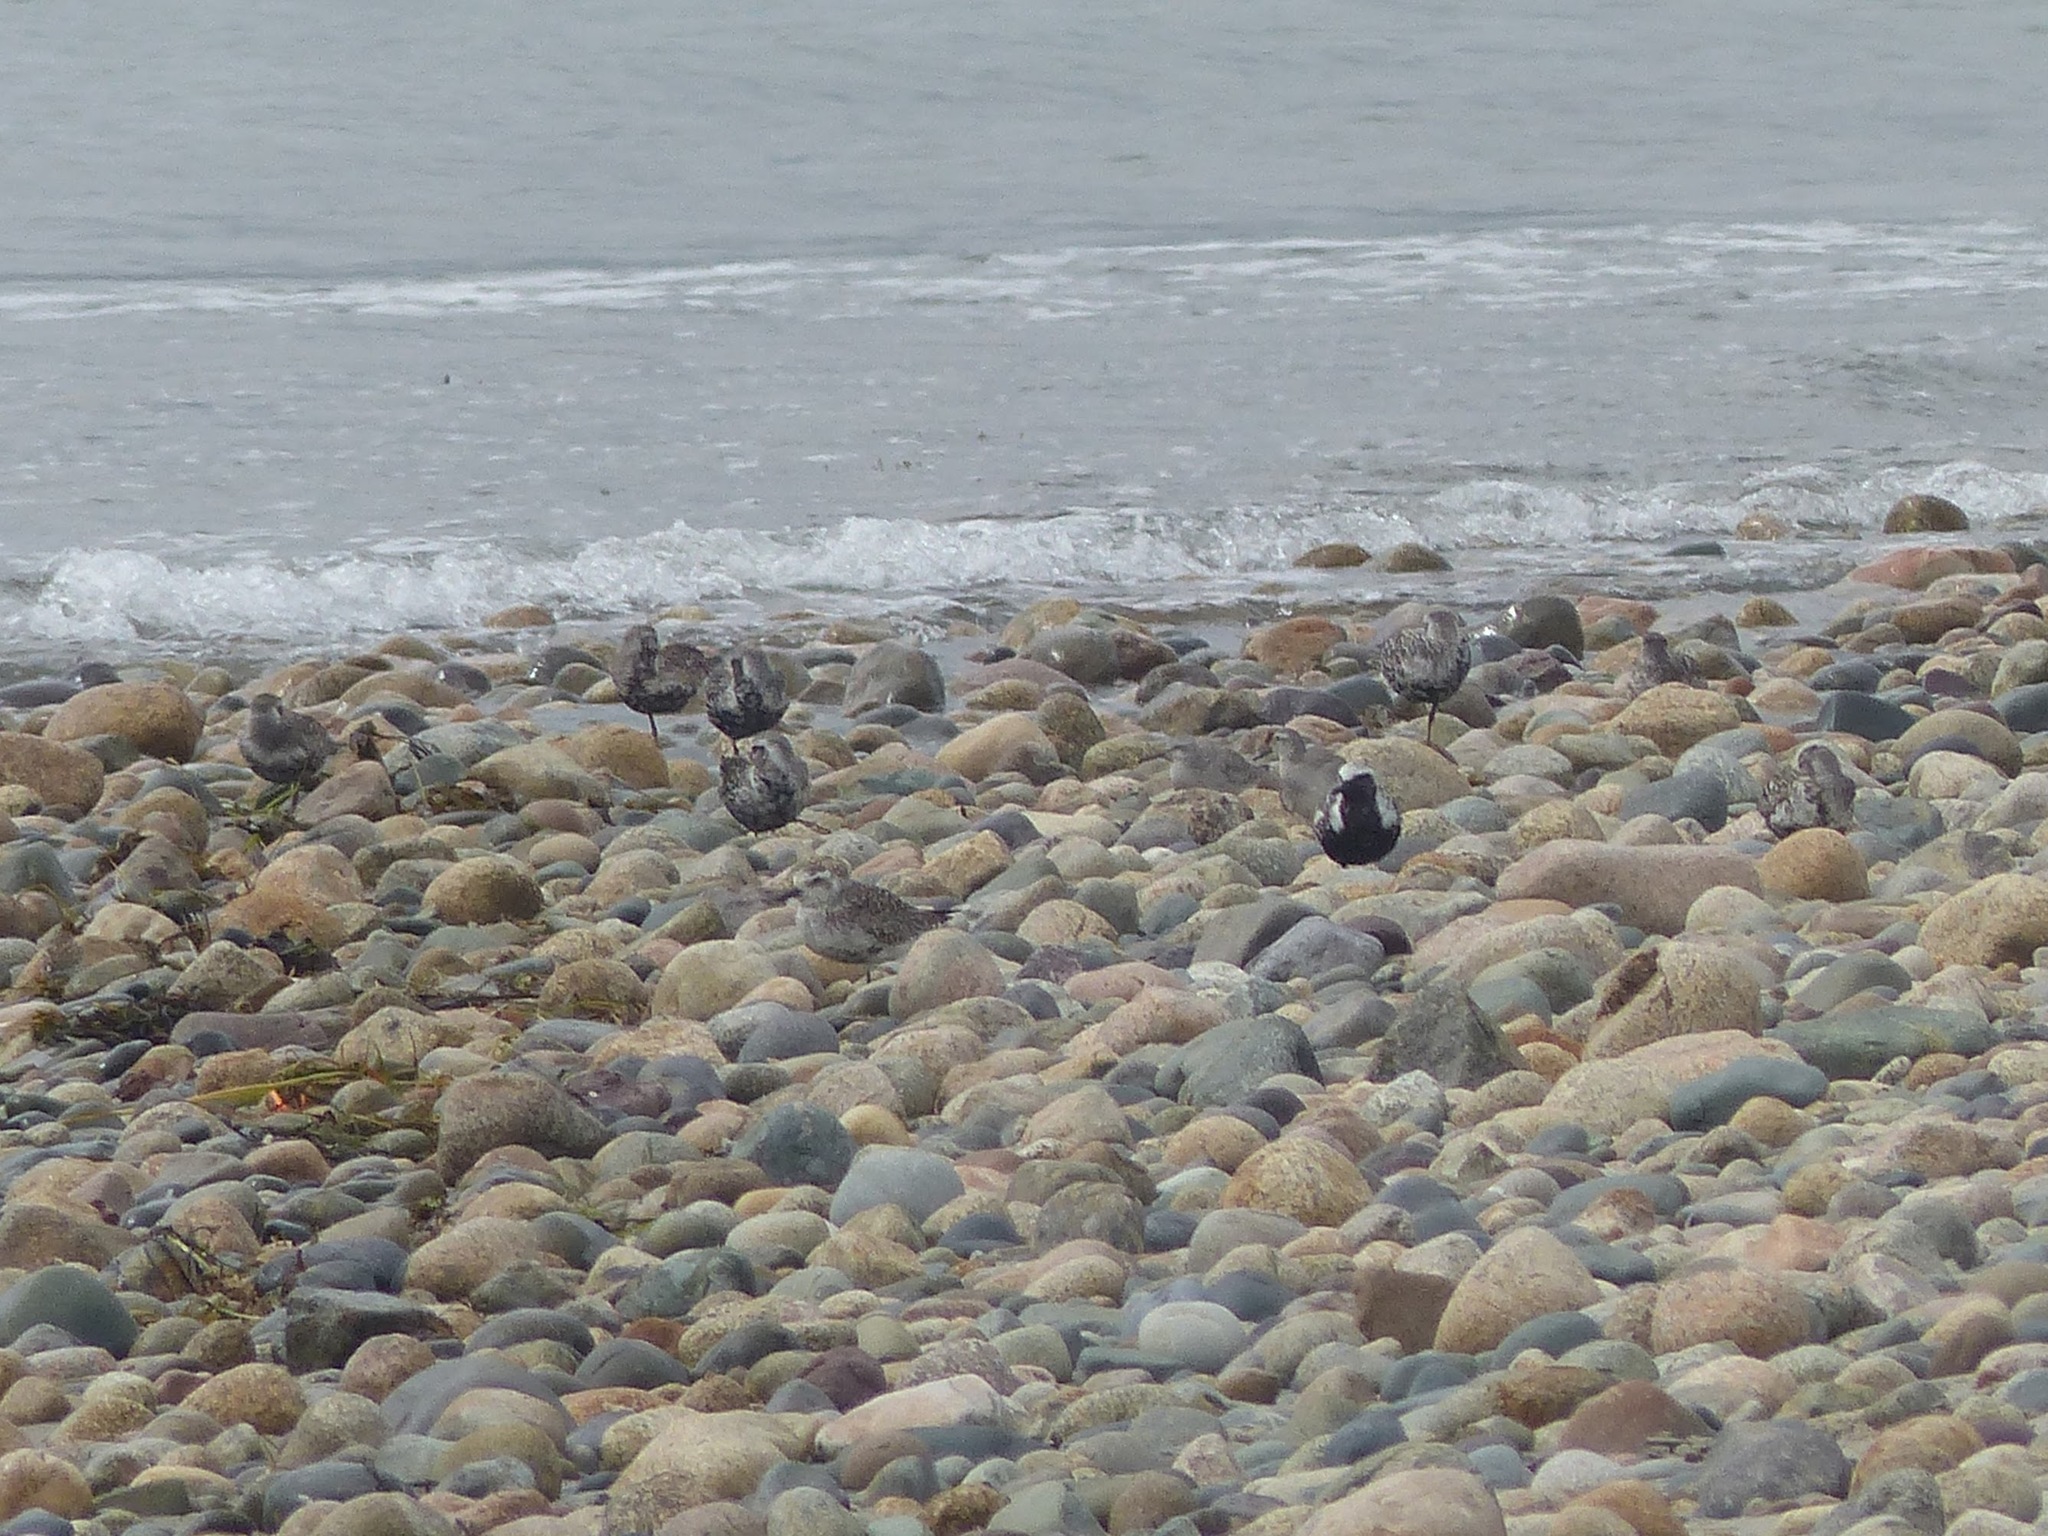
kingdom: Animalia
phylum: Chordata
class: Aves
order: Charadriiformes
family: Charadriidae
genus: Pluvialis
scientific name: Pluvialis squatarola
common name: Grey plover
